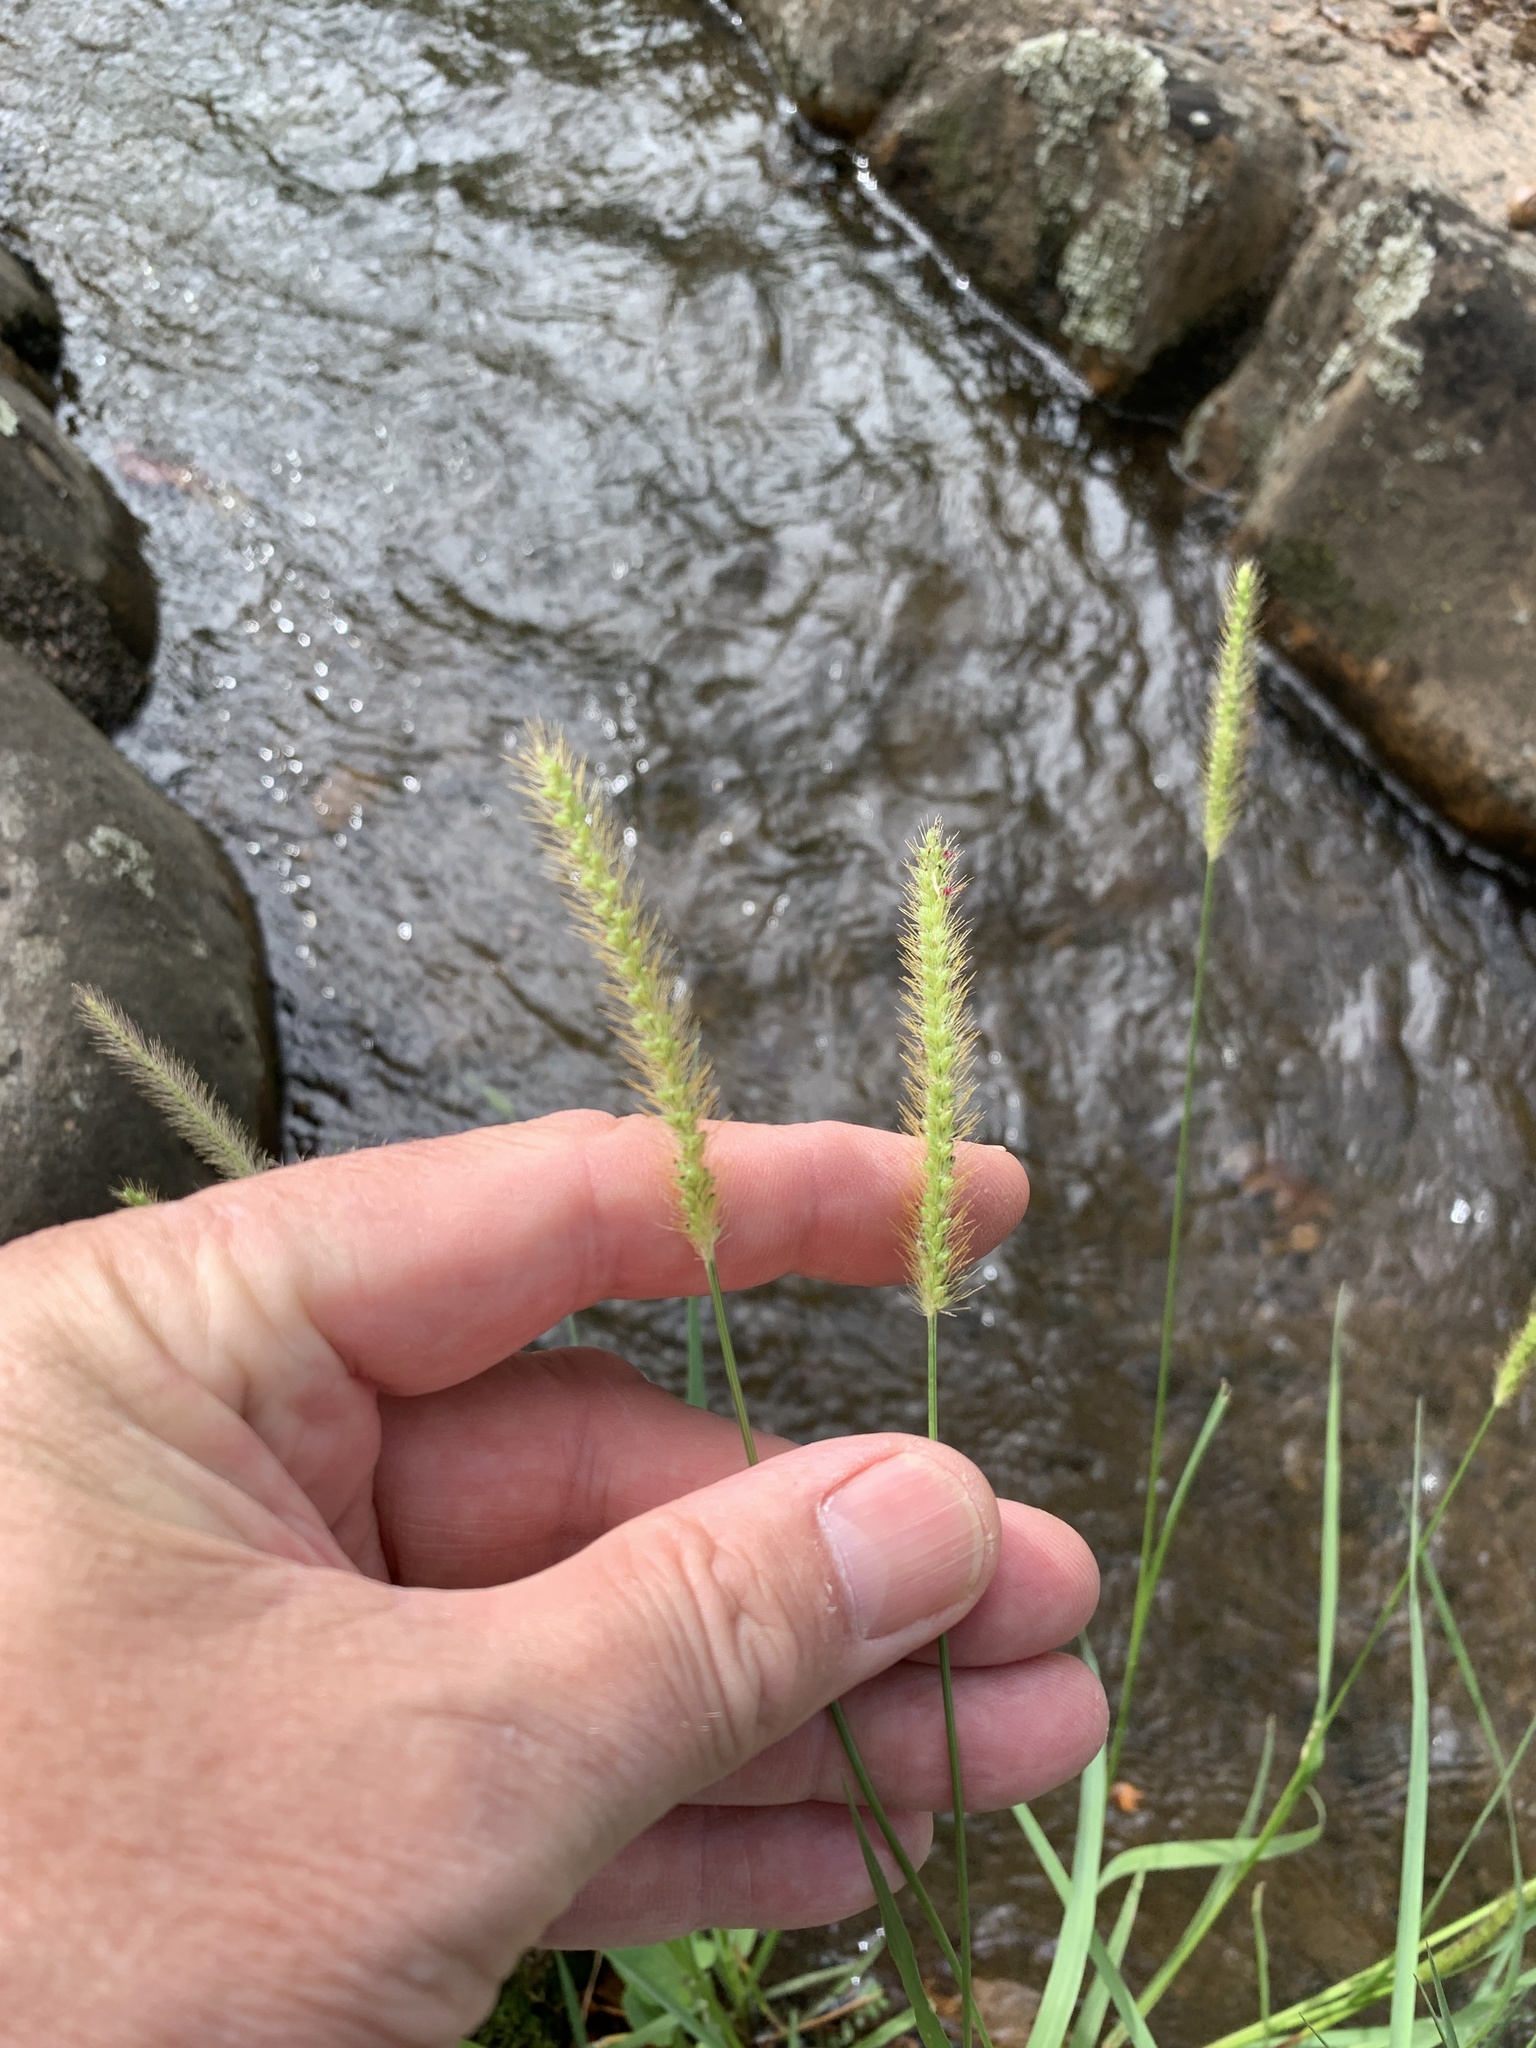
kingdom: Plantae
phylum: Tracheophyta
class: Liliopsida
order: Poales
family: Poaceae
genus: Setaria
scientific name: Setaria verticillata
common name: Hooked bristlegrass
